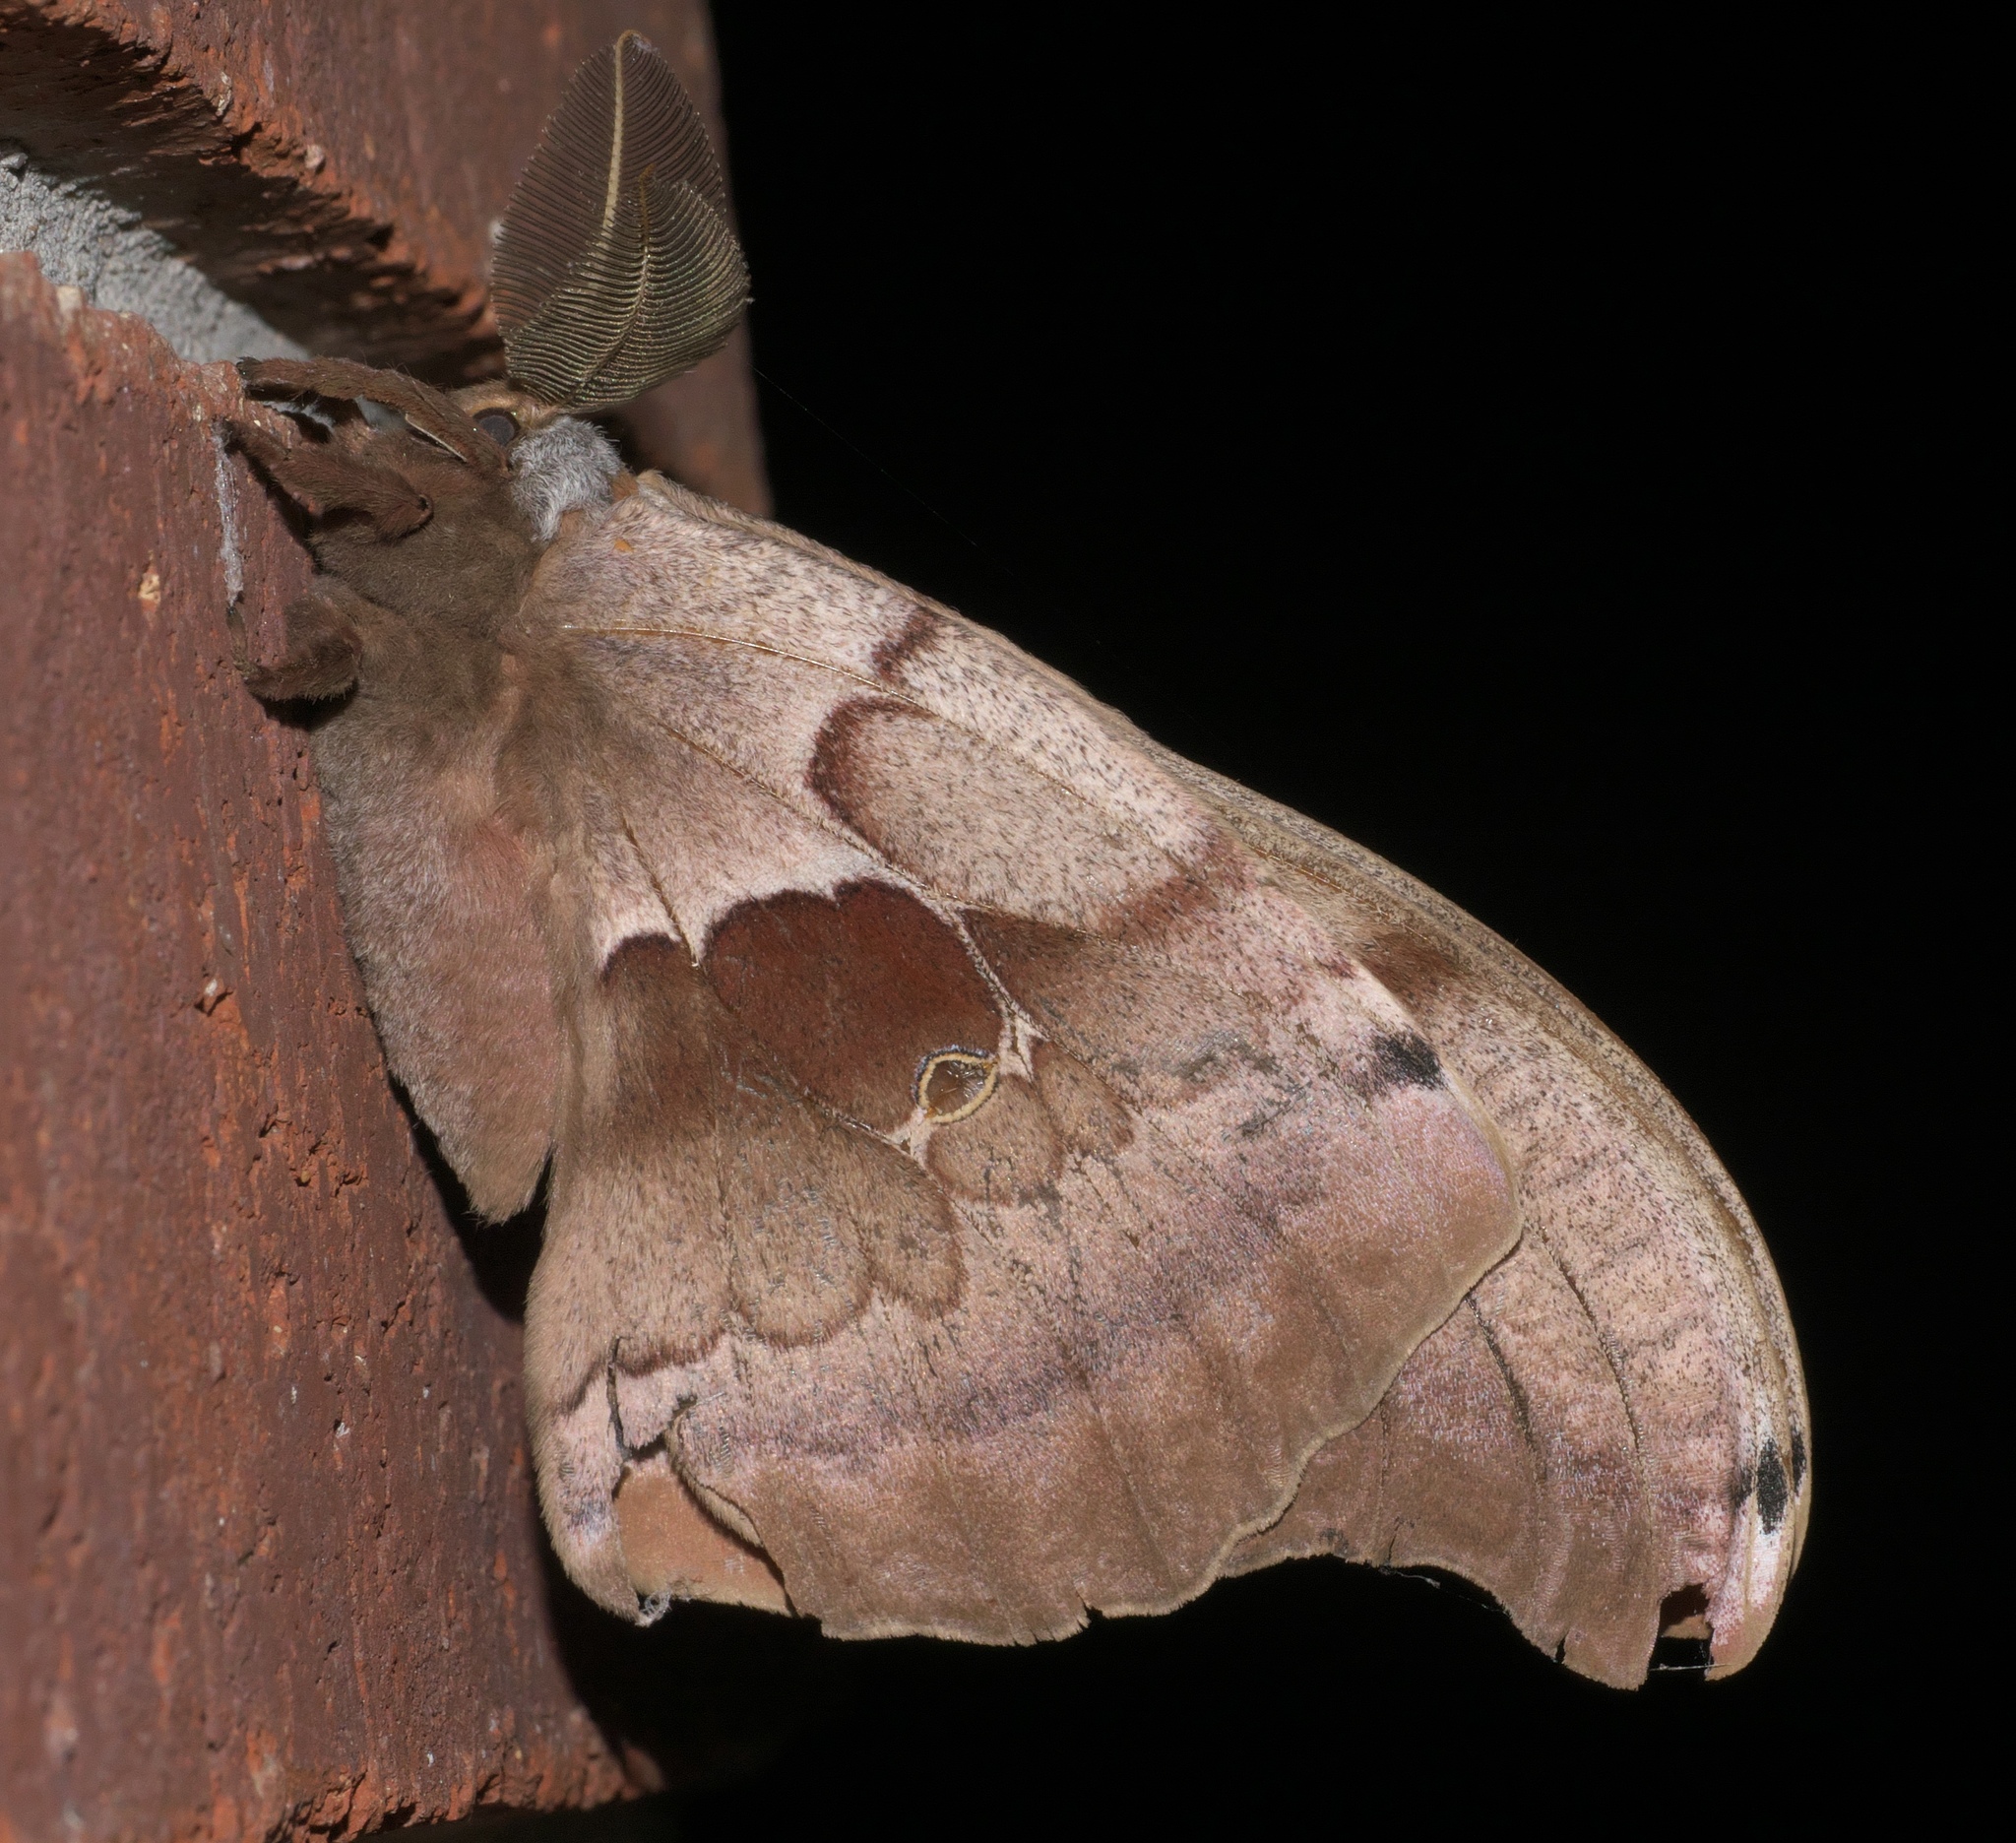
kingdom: Animalia
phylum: Arthropoda
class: Insecta
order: Lepidoptera
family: Saturniidae
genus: Antheraea
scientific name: Antheraea polyphemus
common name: Polyphemus moth
